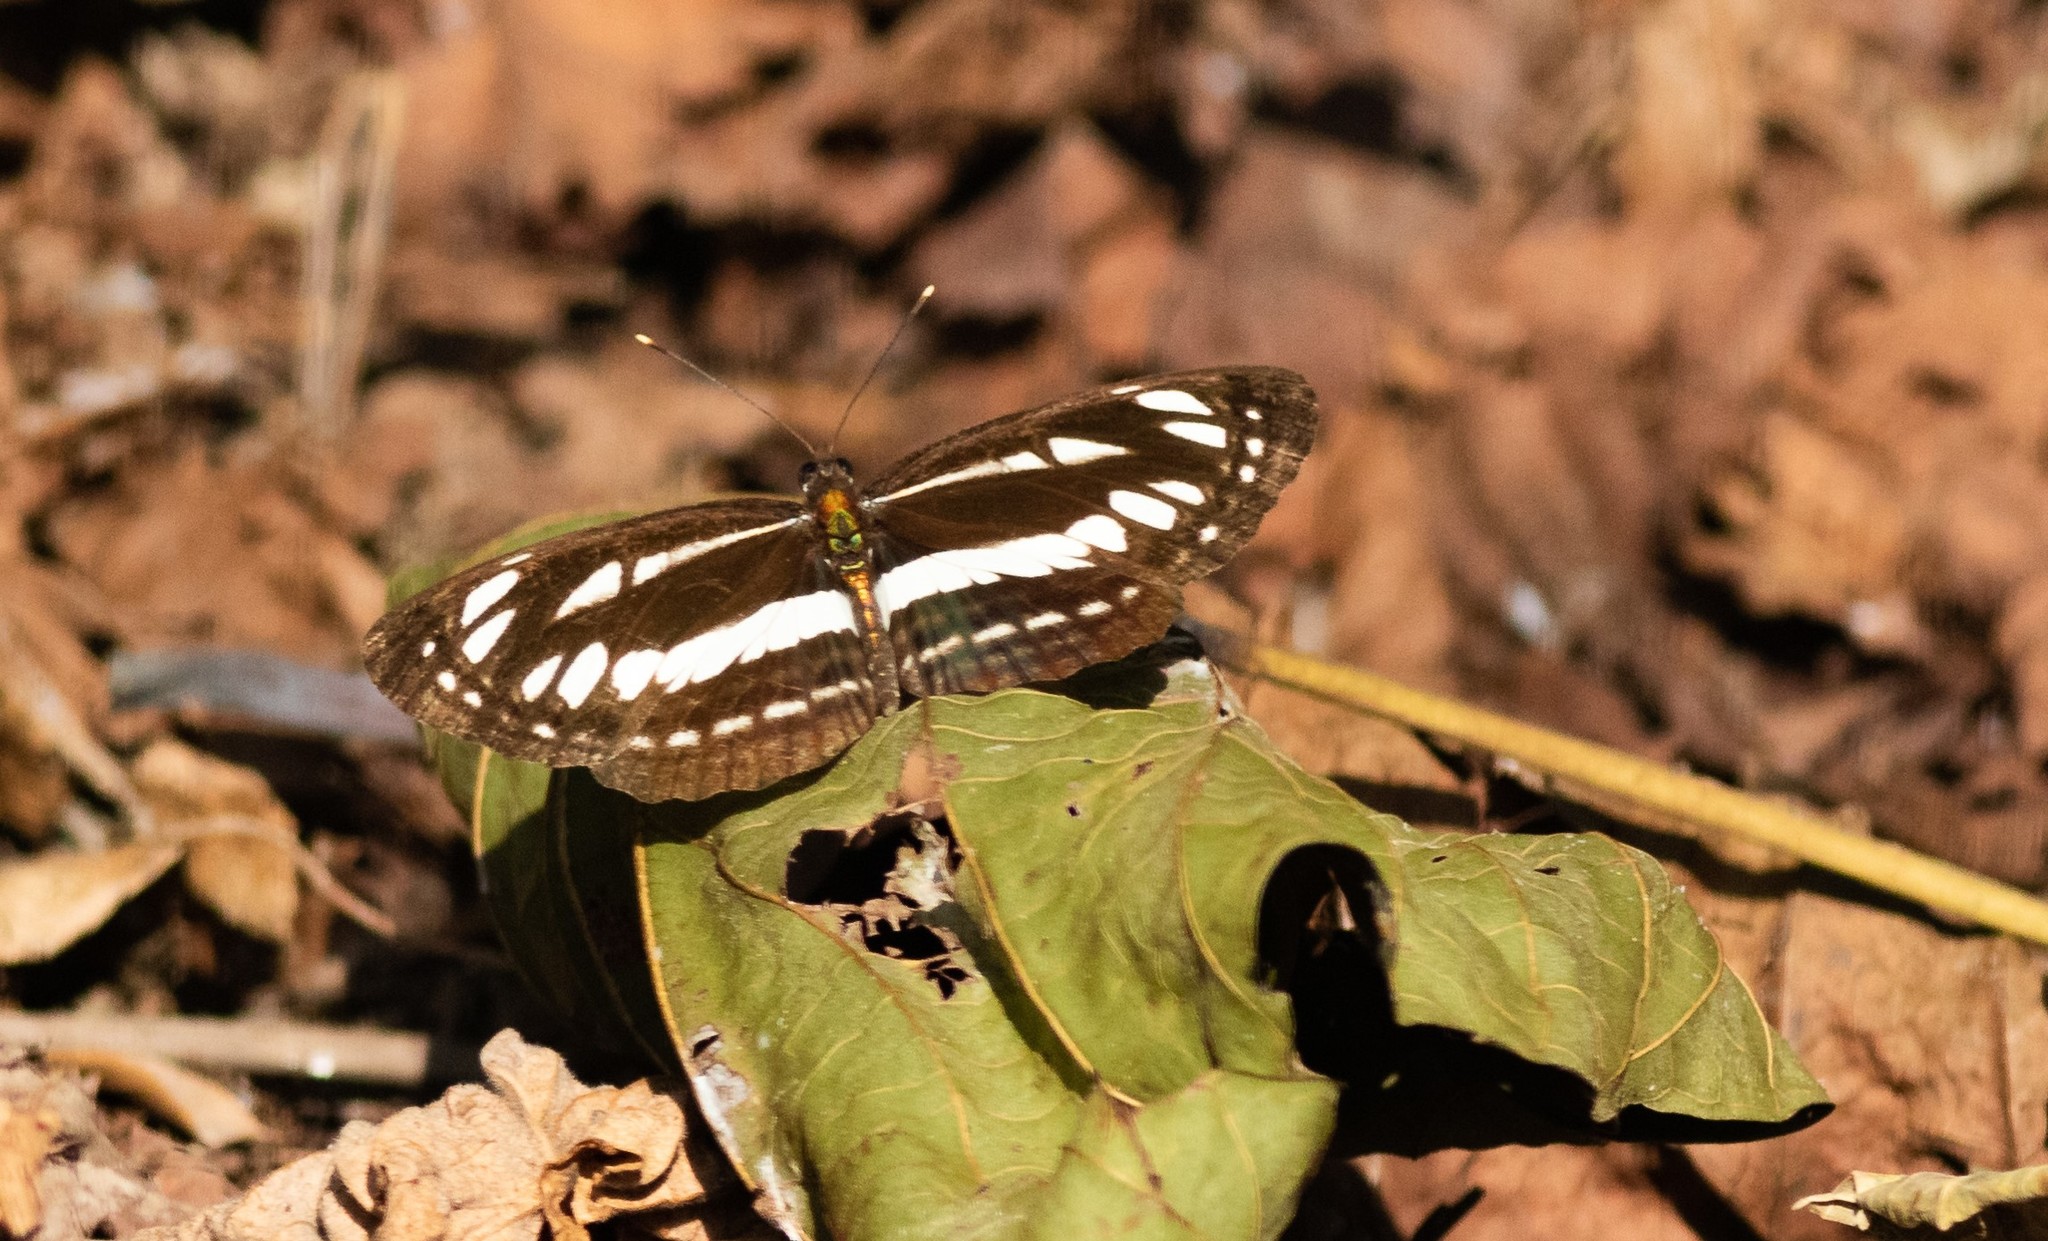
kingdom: Animalia
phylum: Arthropoda
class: Insecta
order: Lepidoptera
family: Nymphalidae
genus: Neptis
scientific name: Neptis hylas
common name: Common sailer
